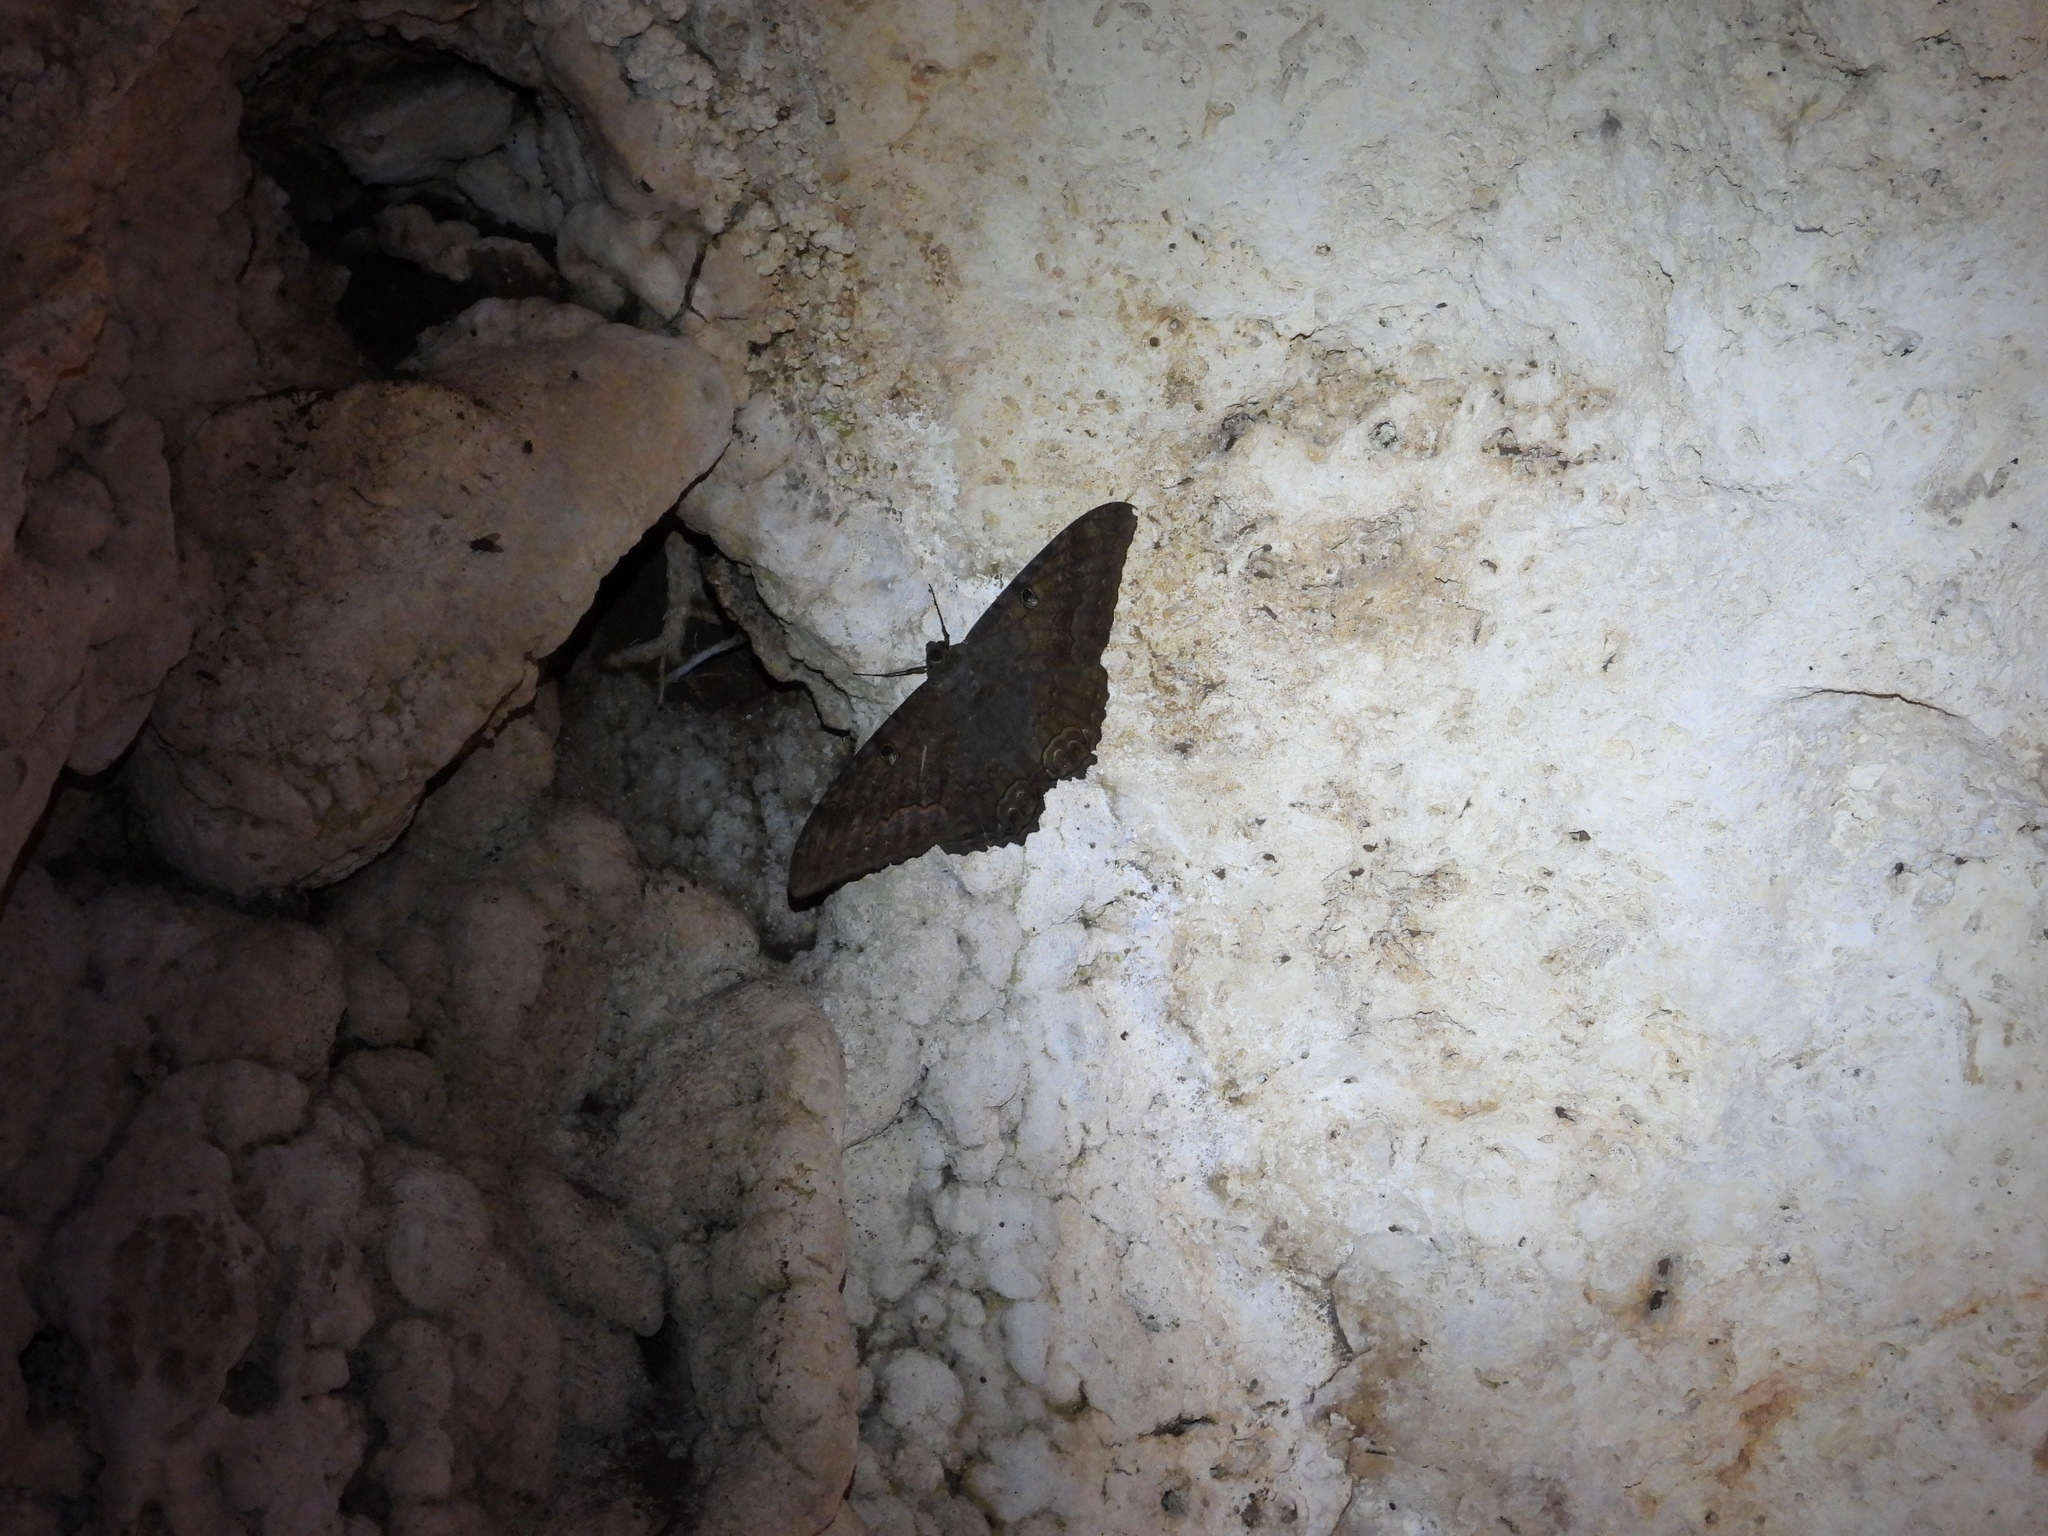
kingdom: Animalia
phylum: Arthropoda
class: Insecta
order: Lepidoptera
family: Erebidae
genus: Ascalapha
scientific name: Ascalapha odorata
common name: Black witch
